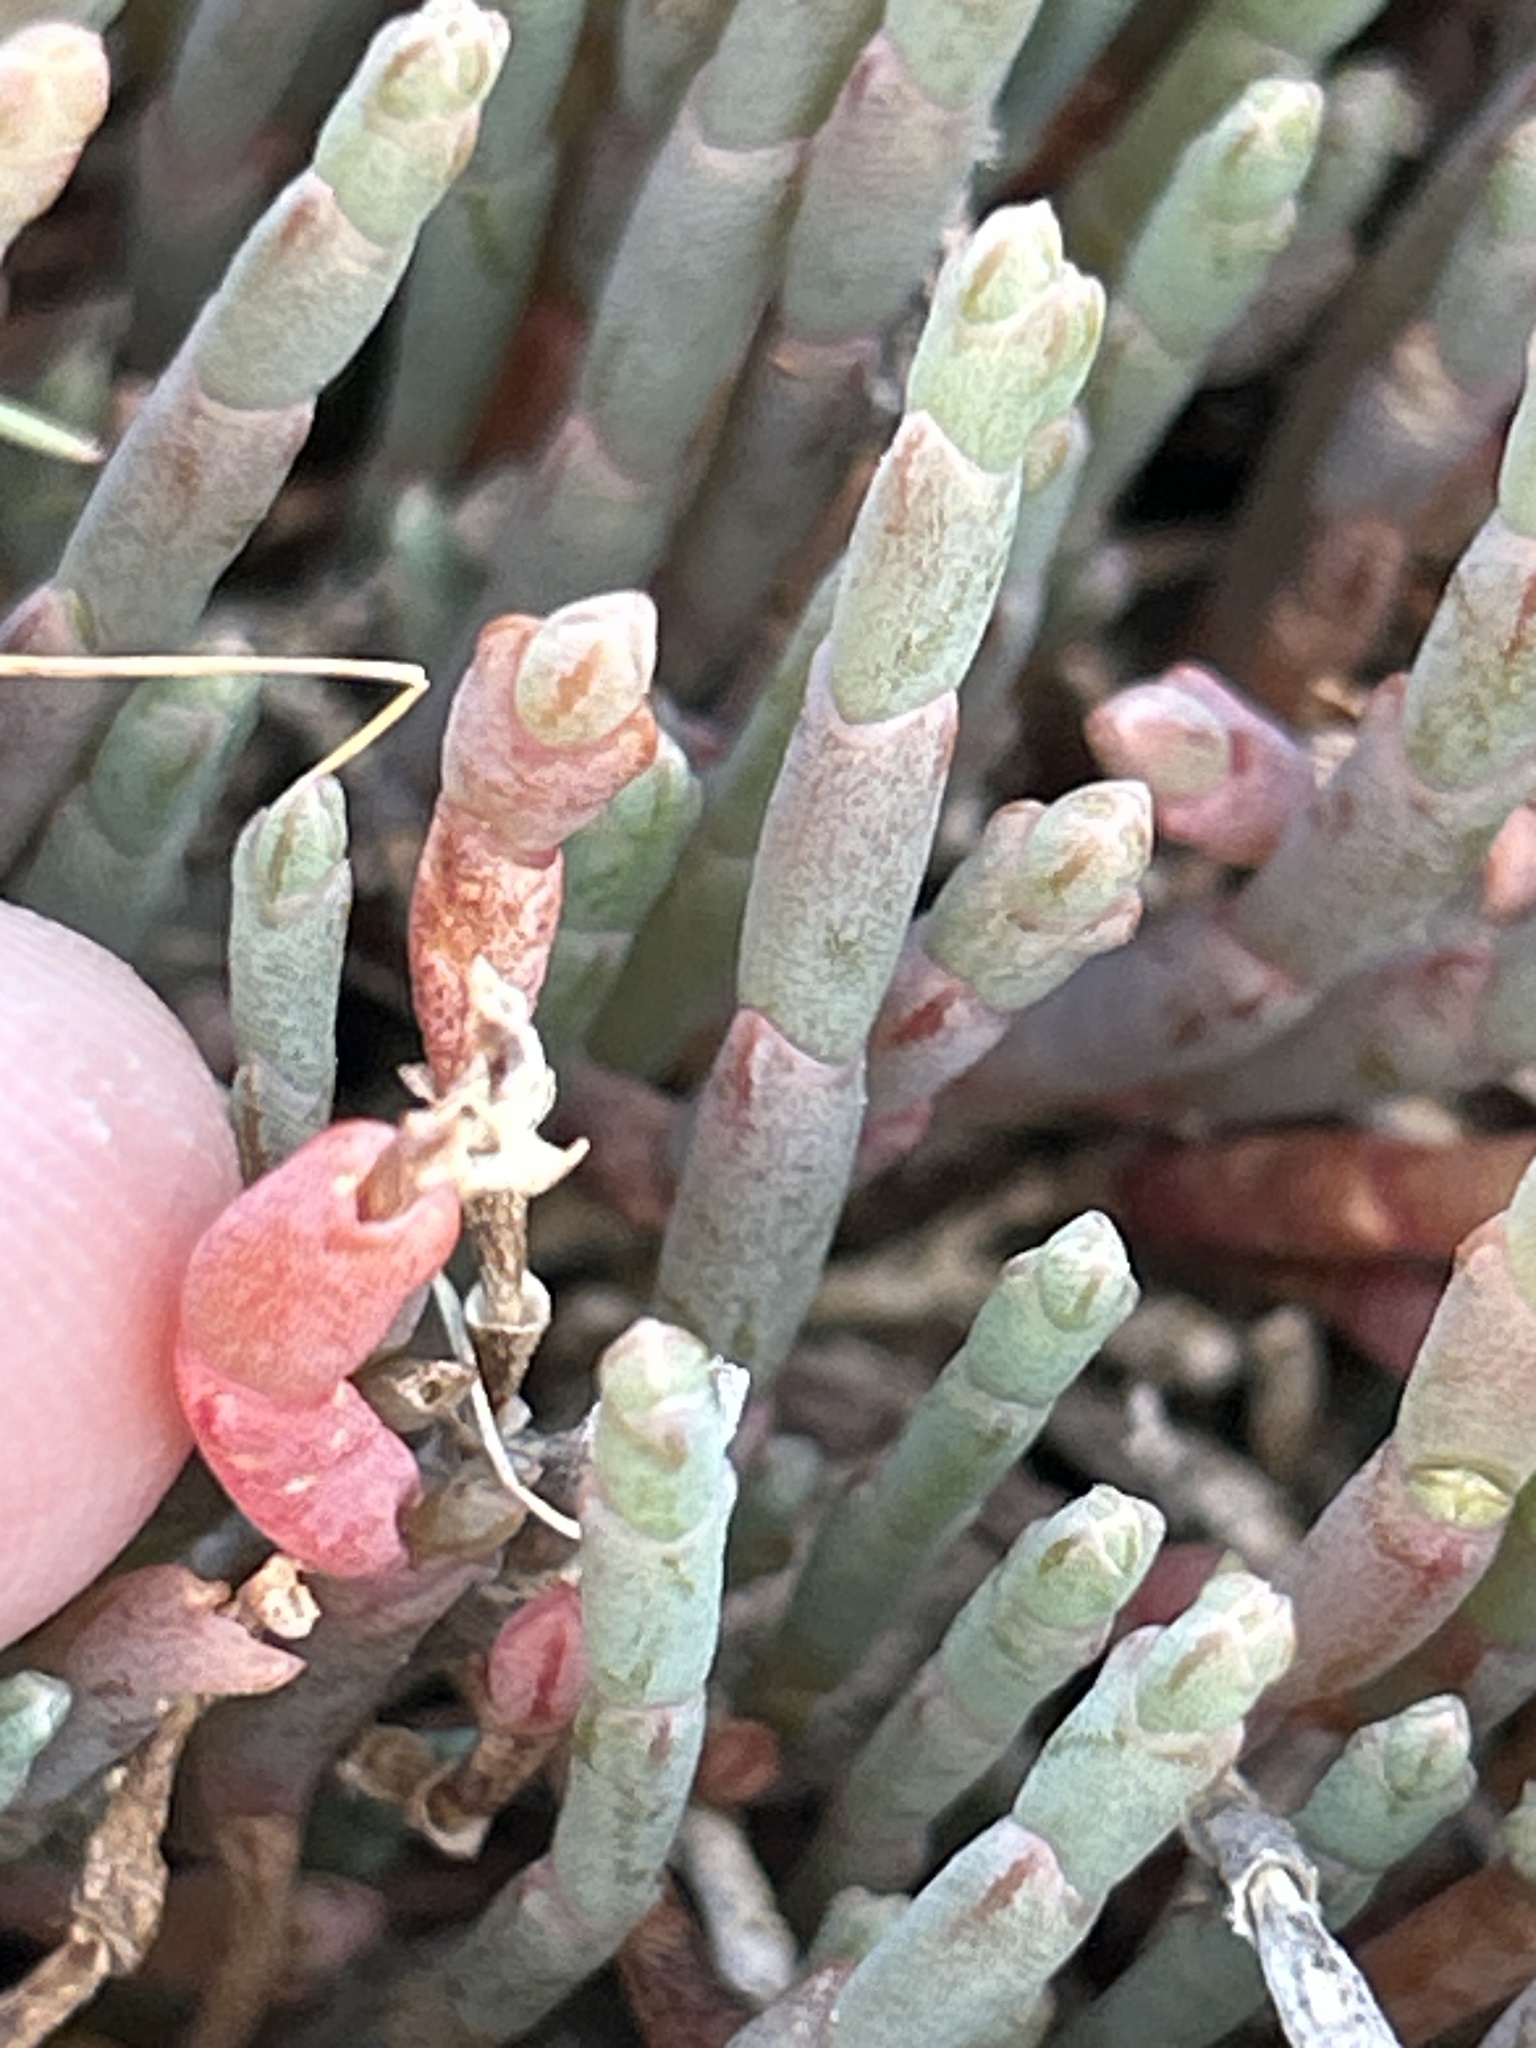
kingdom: Plantae
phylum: Tracheophyta
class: Magnoliopsida
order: Caryophyllales
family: Amaranthaceae
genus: Salicornia
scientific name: Salicornia quinqueflora
